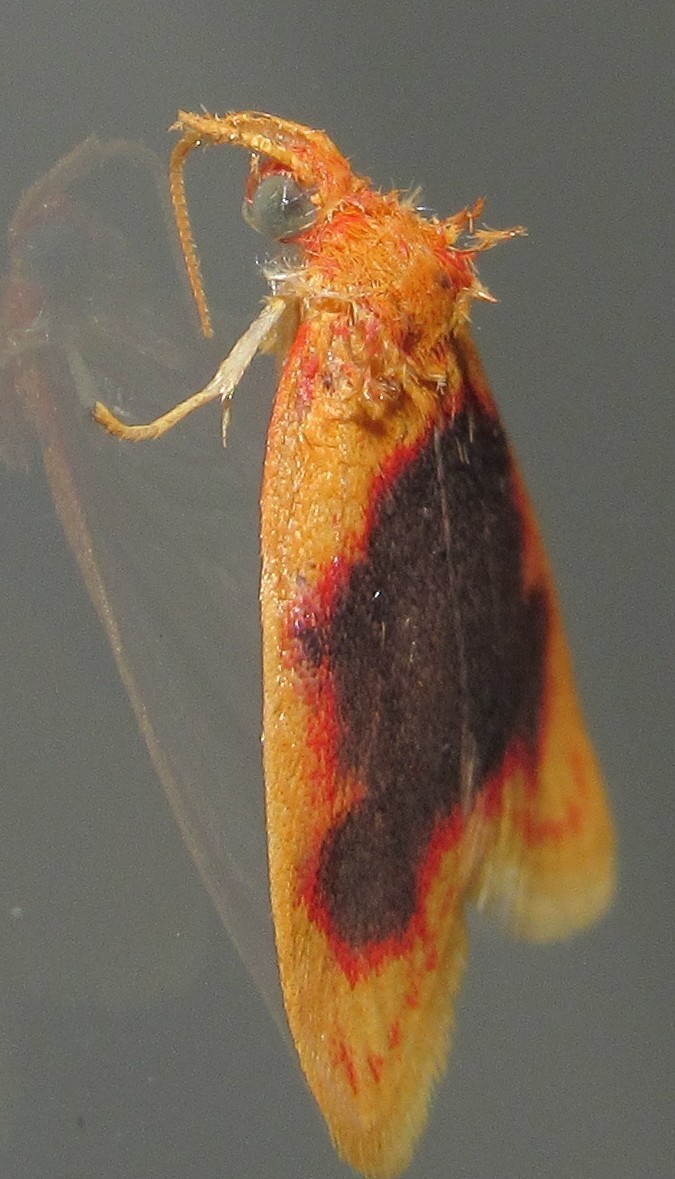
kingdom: Animalia
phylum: Arthropoda
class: Insecta
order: Lepidoptera
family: Erebidae
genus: Rhodographa
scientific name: Rhodographa phaeoplaga
